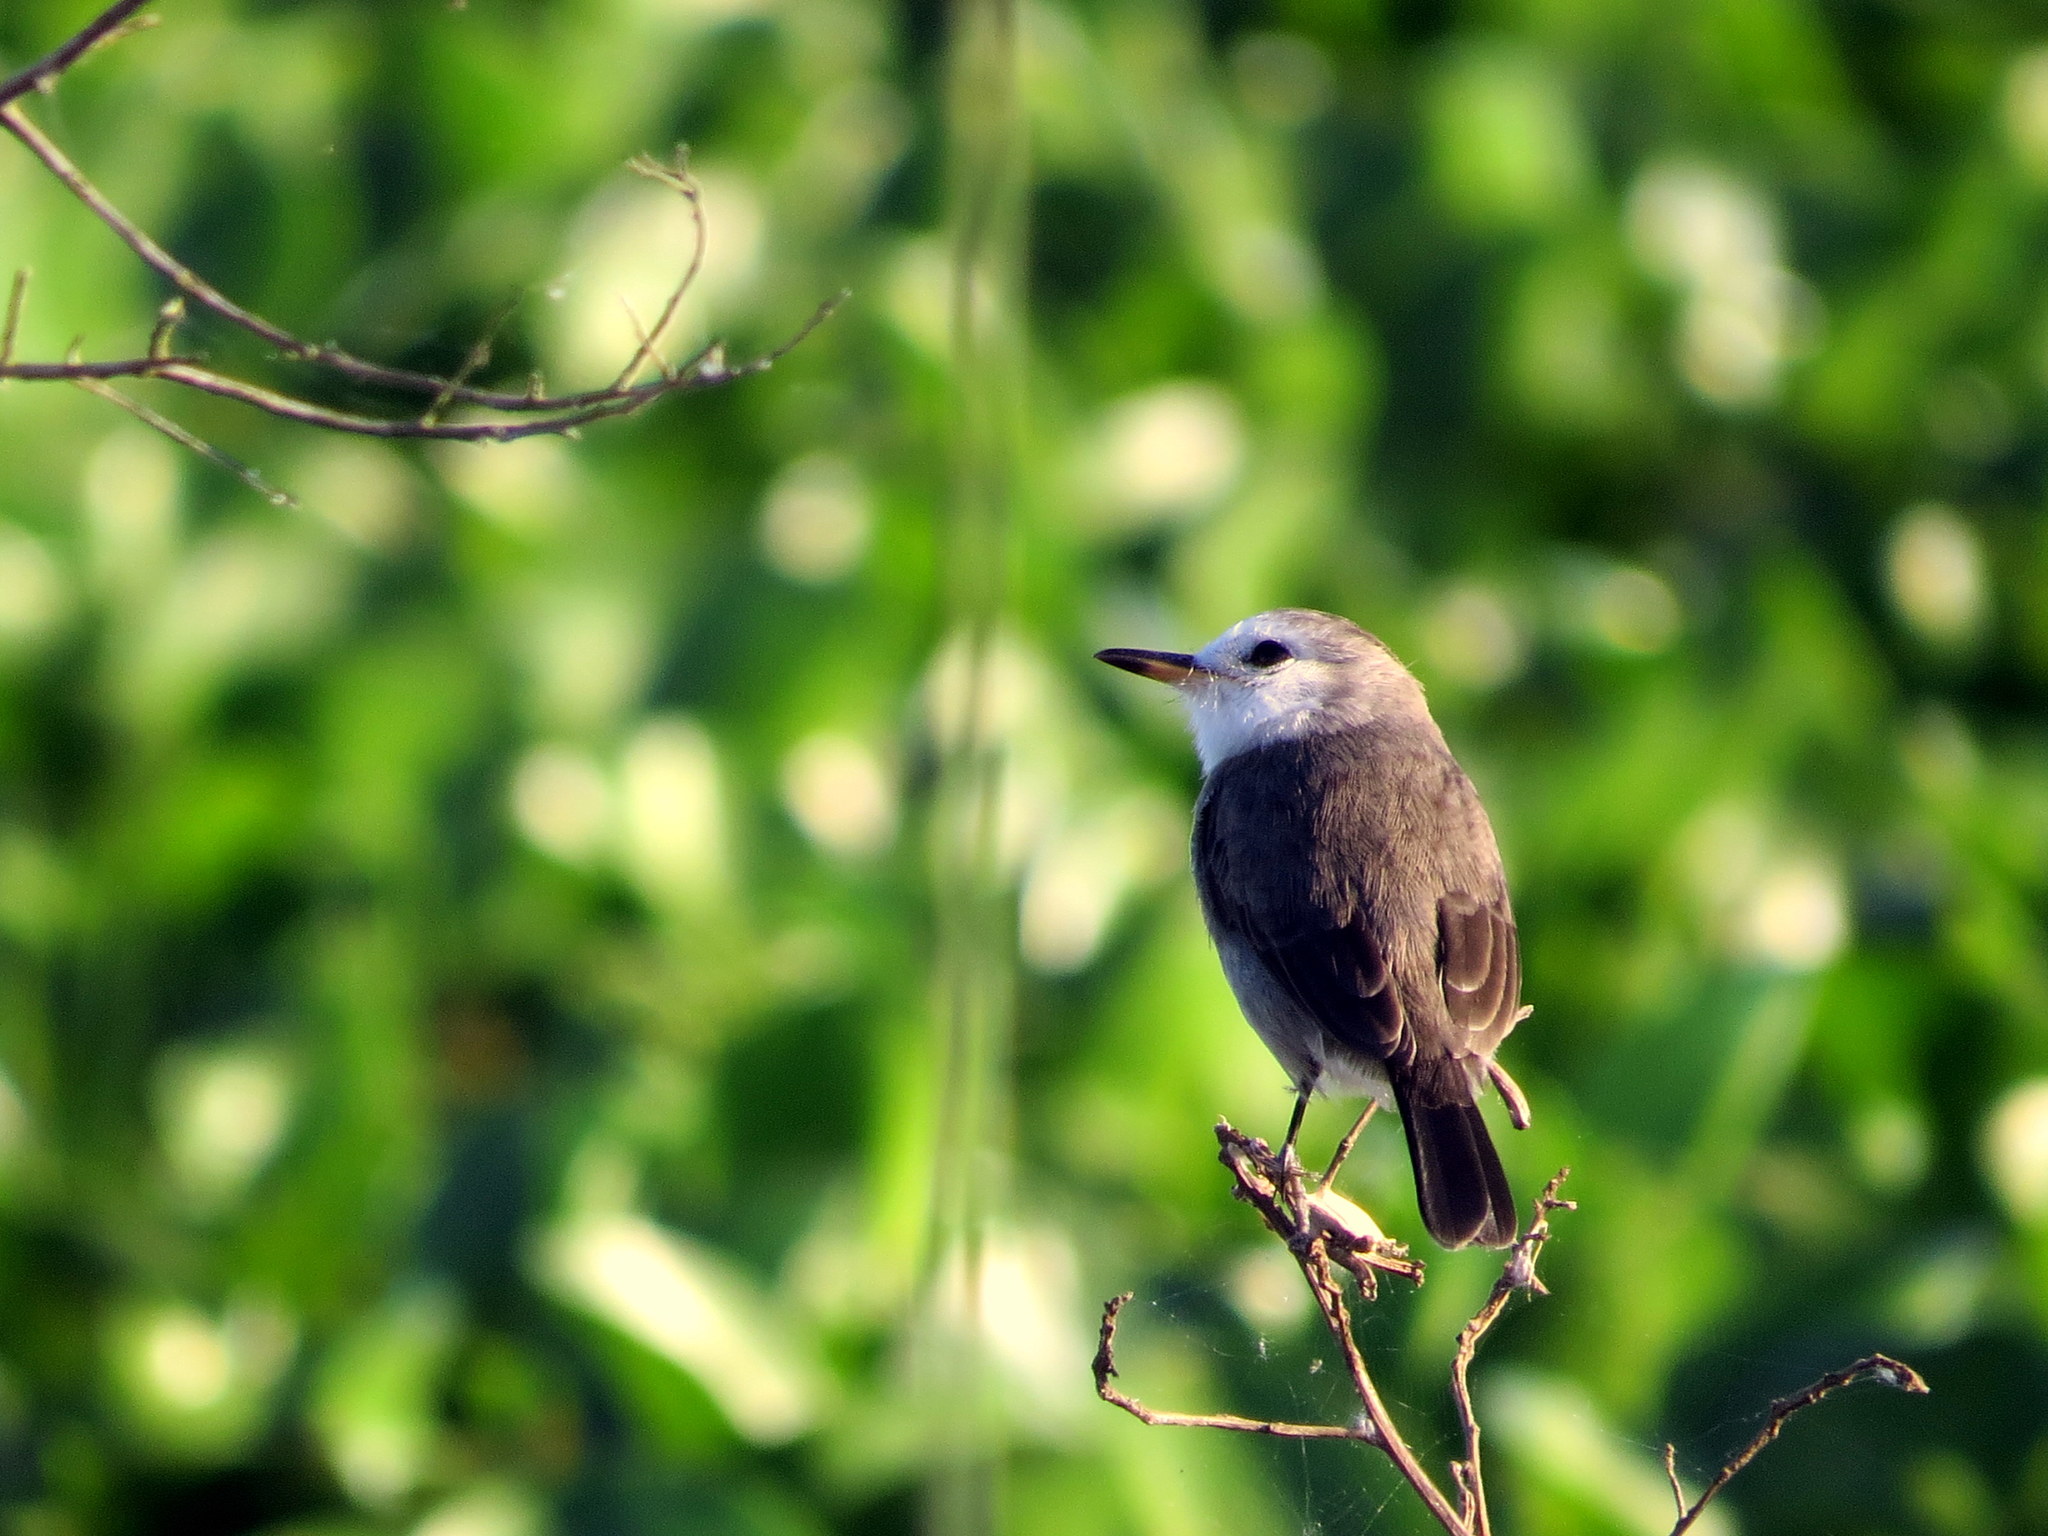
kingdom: Animalia
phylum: Chordata
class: Aves
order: Passeriformes
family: Tyrannidae
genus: Arundinicola
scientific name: Arundinicola leucocephala
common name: White-headed marsh tyrant
